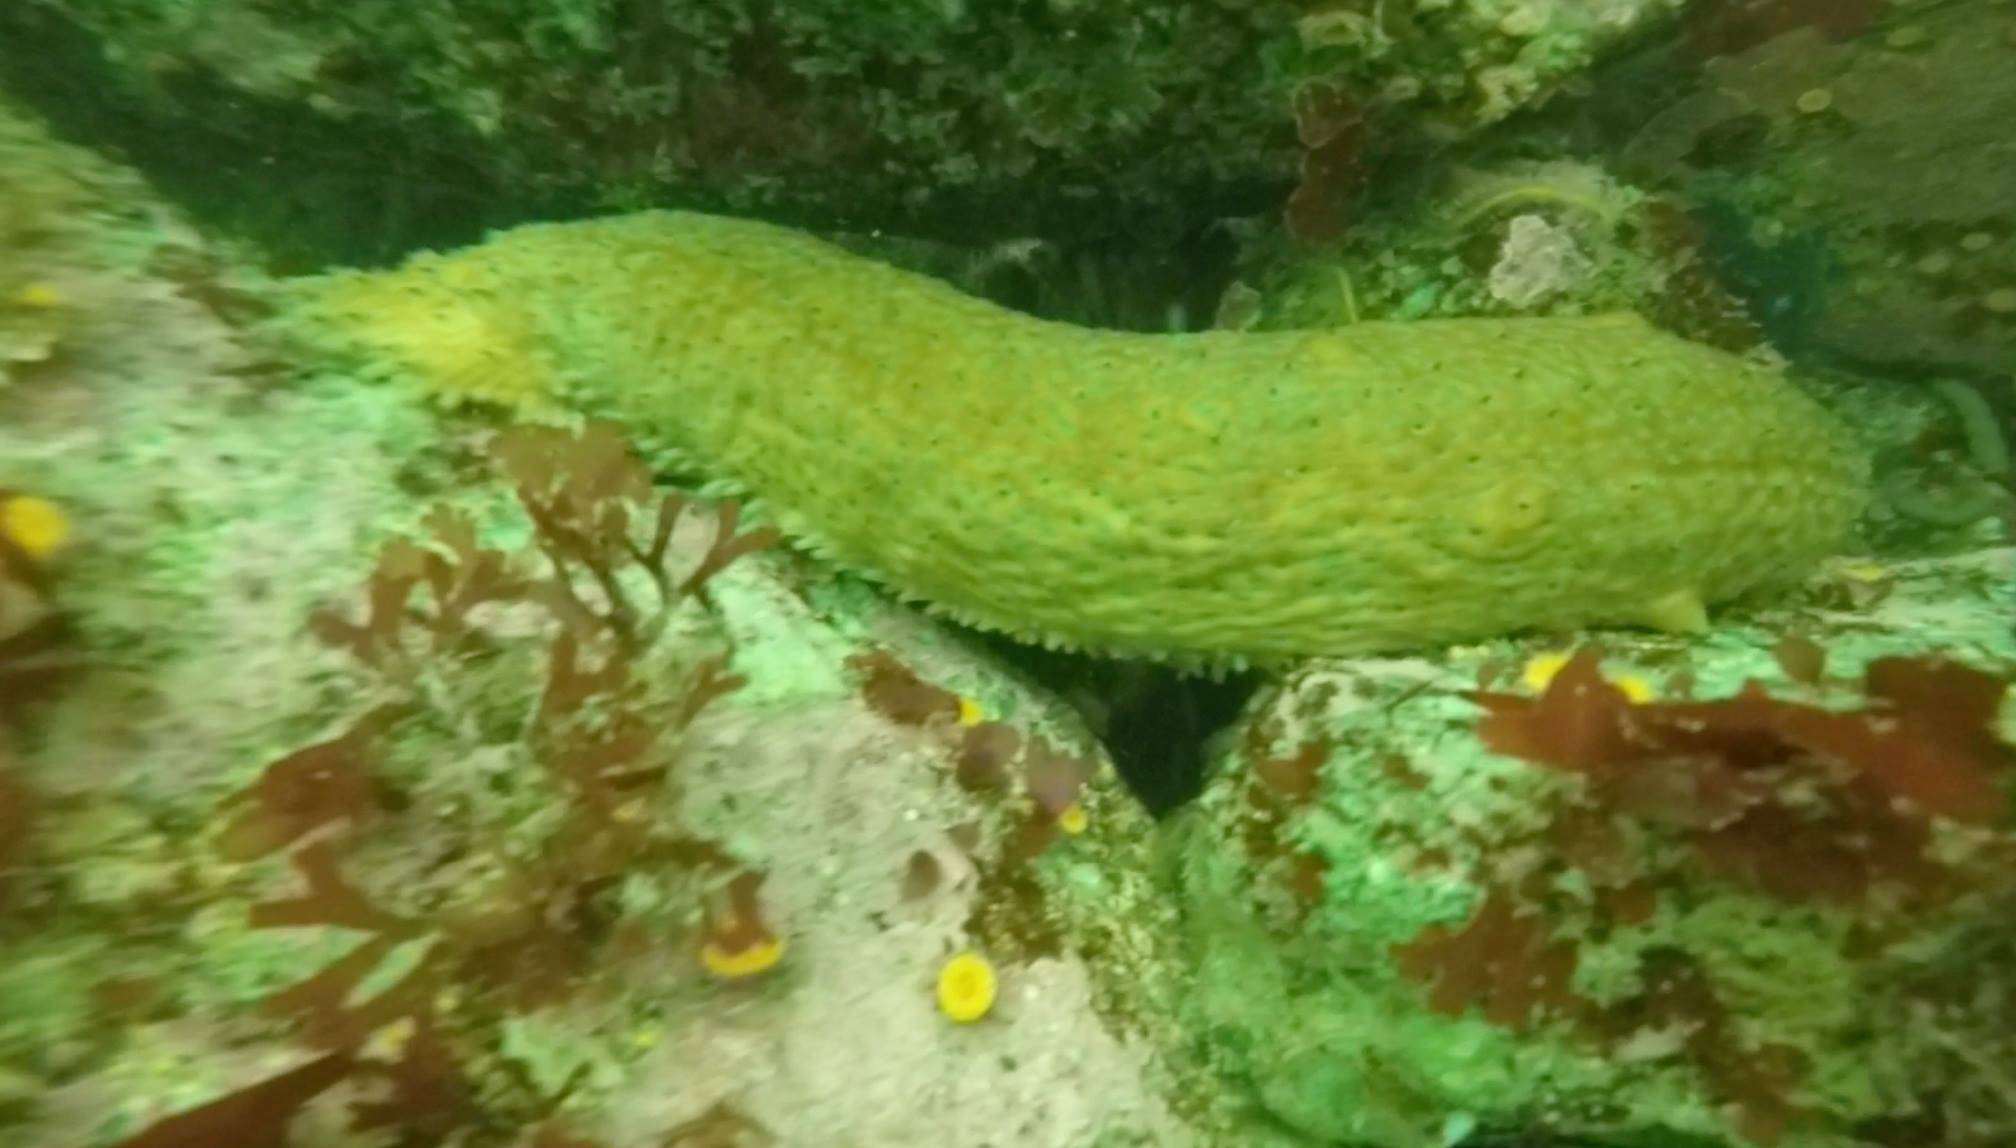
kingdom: Animalia
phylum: Echinodermata
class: Holothuroidea
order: Synallactida
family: Stichopodidae
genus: Apostichopus
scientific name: Apostichopus parvimensis
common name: Warty sea cucumber
